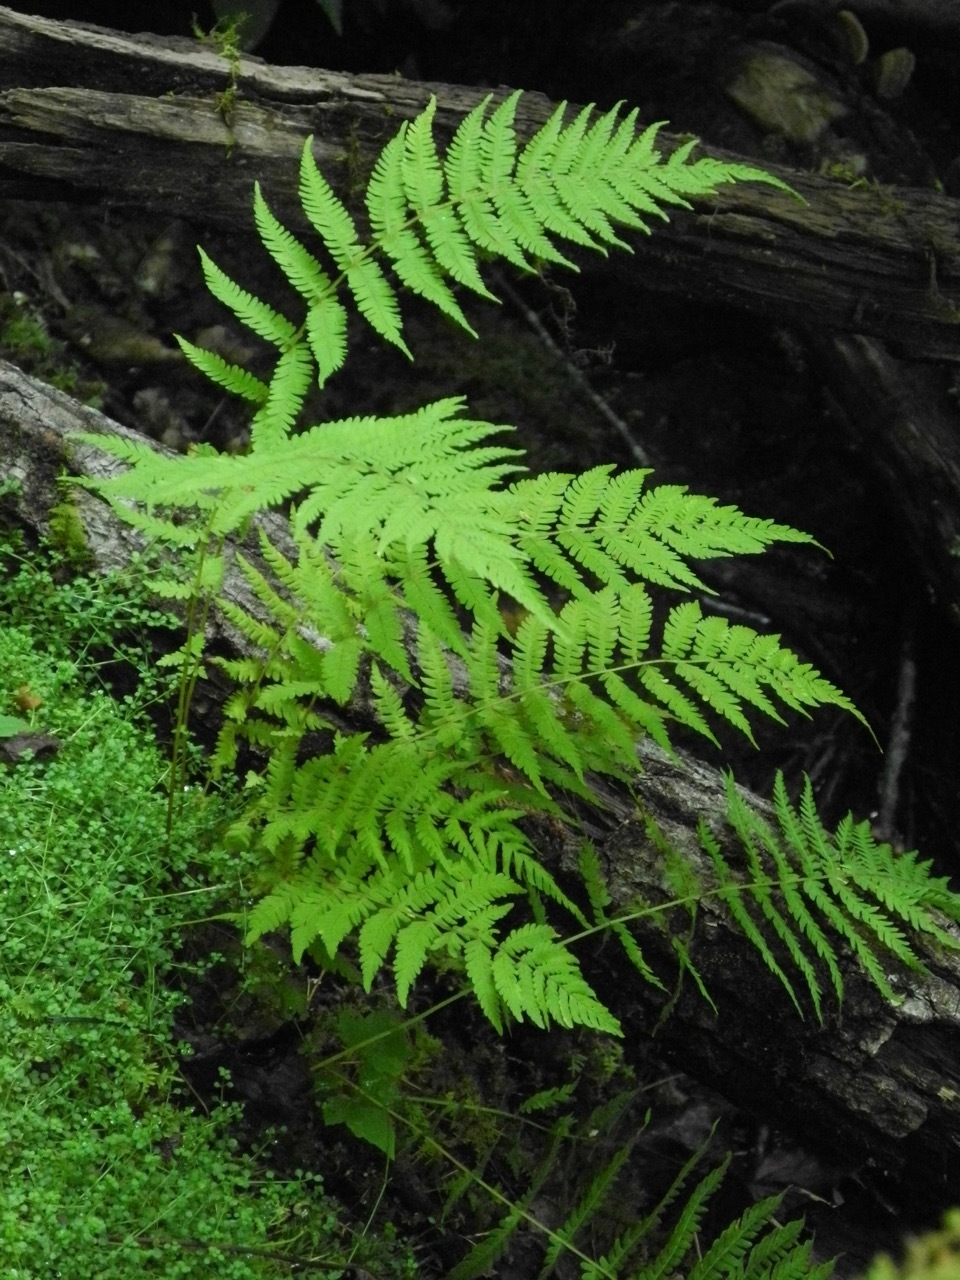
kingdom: Plantae
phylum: Tracheophyta
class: Polypodiopsida
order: Polypodiales
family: Thelypteridaceae
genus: Amauropelta
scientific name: Amauropelta noveboracensis
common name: New york fern
